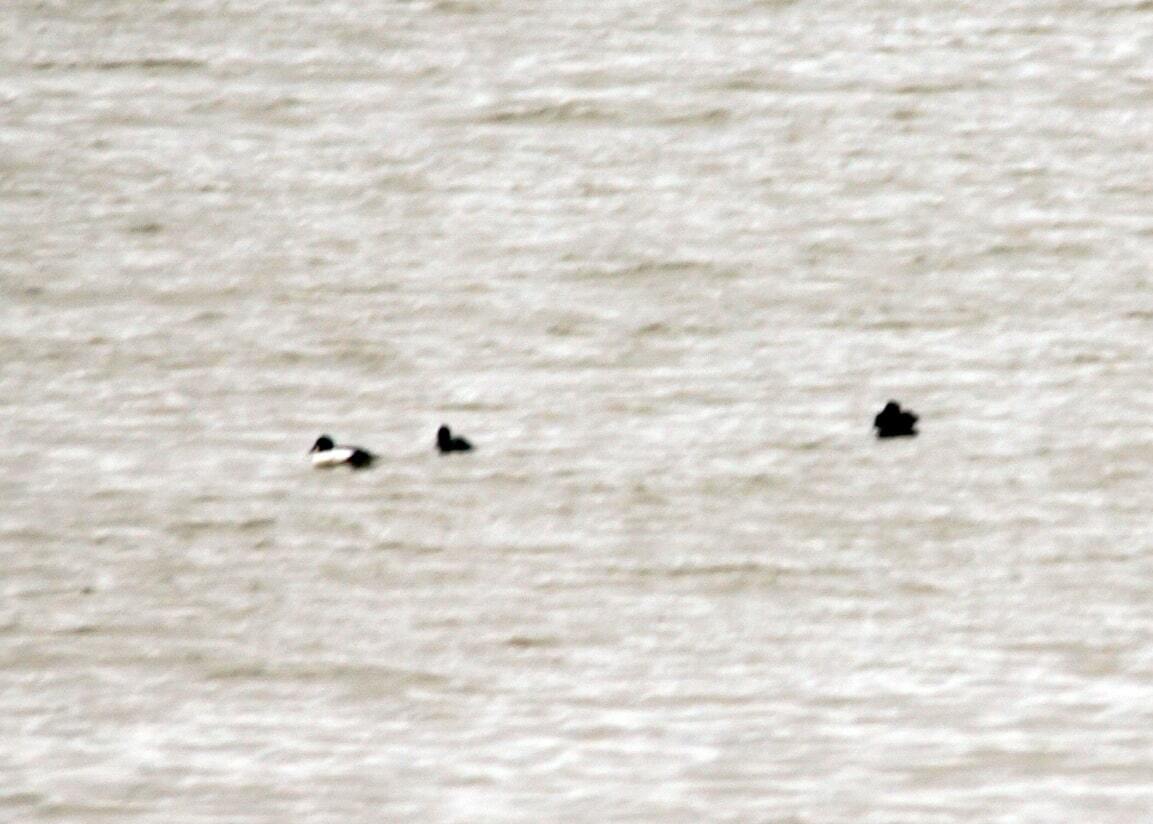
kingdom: Animalia
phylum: Chordata
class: Aves
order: Anseriformes
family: Anatidae
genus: Bucephala
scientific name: Bucephala clangula
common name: Common goldeneye
